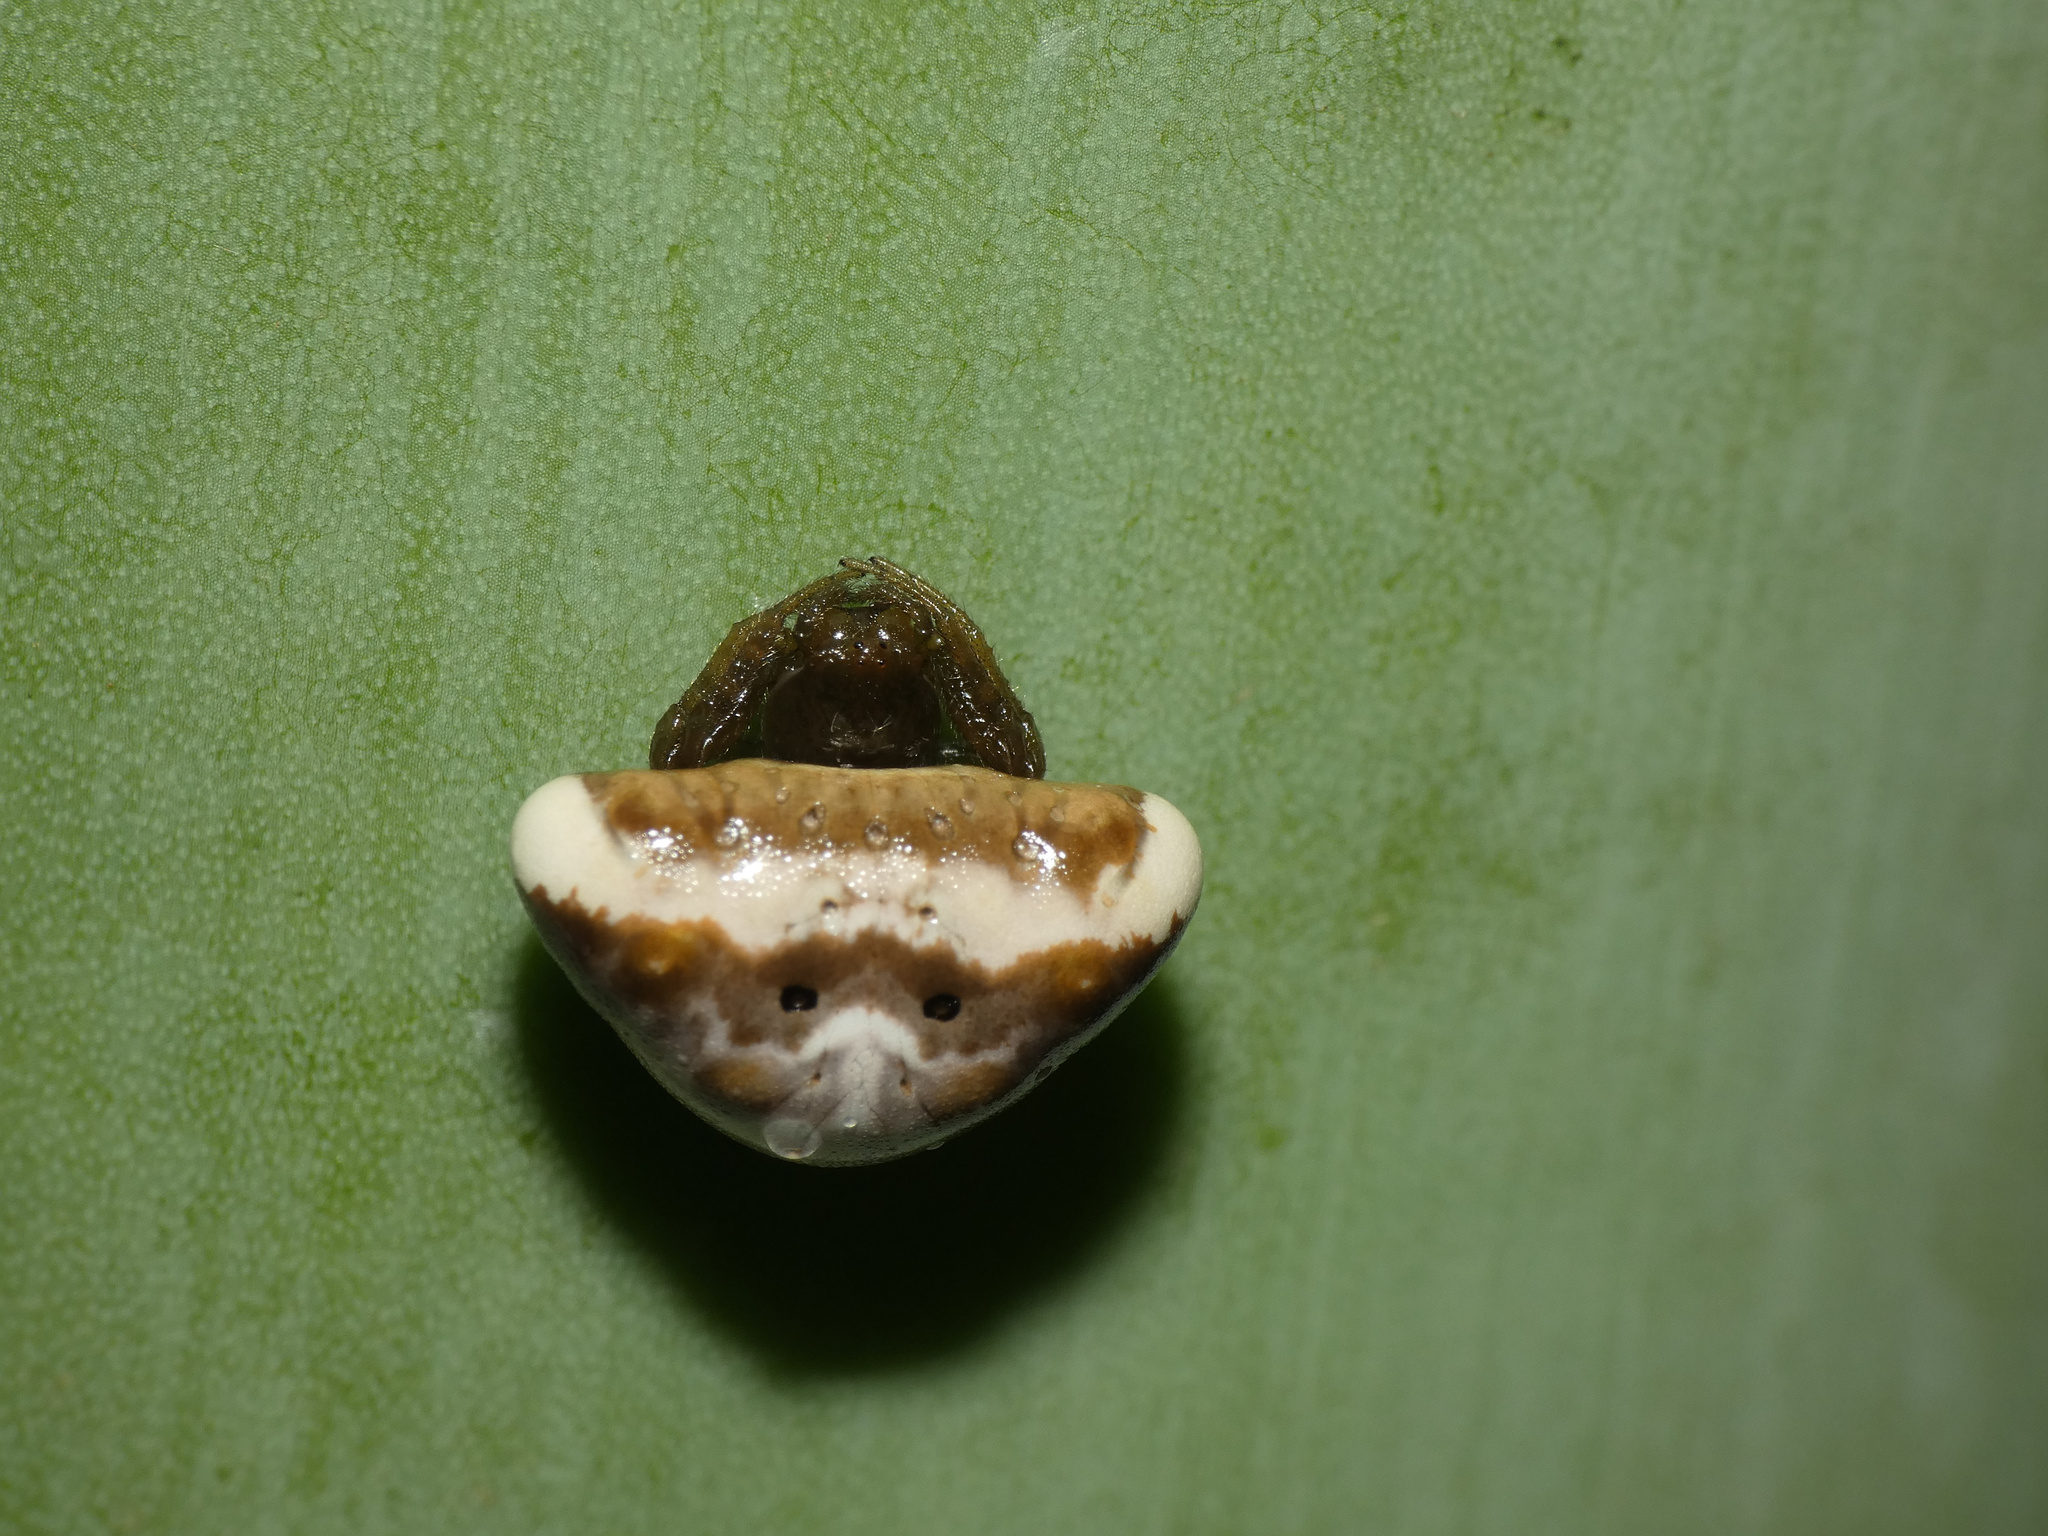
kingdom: Animalia
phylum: Arthropoda
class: Arachnida
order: Araneae
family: Araneidae
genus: Cyrtarachne
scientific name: Cyrtarachne ixoides
